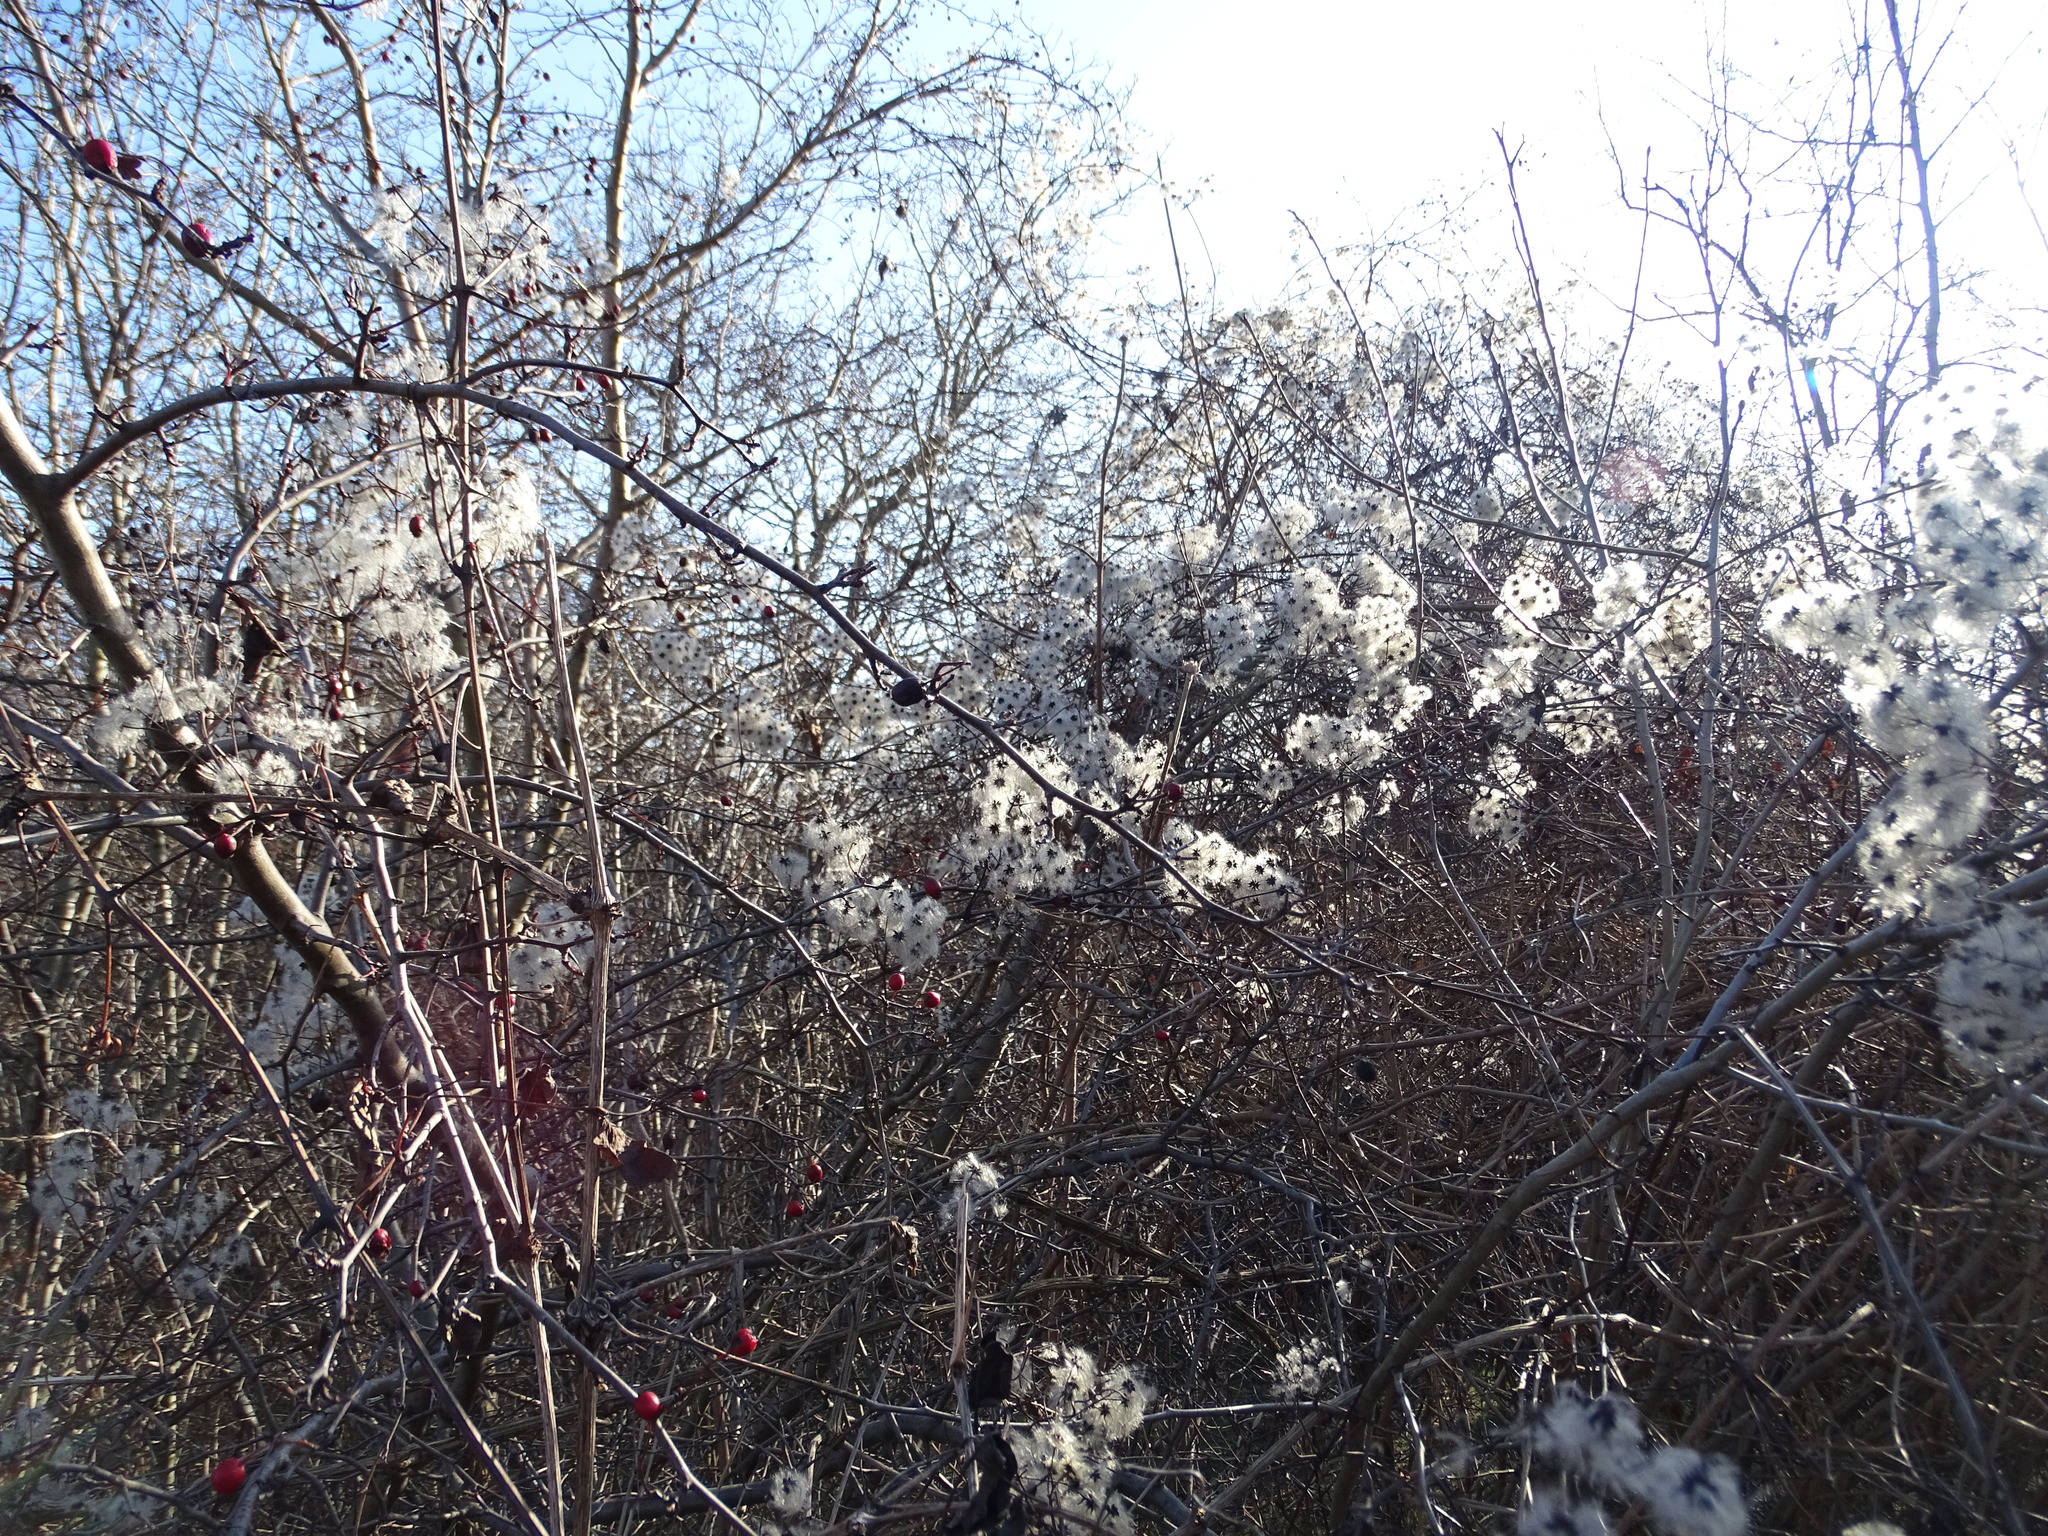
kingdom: Plantae
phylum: Tracheophyta
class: Magnoliopsida
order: Ranunculales
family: Ranunculaceae
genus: Clematis
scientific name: Clematis vitalba
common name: Evergreen clematis
